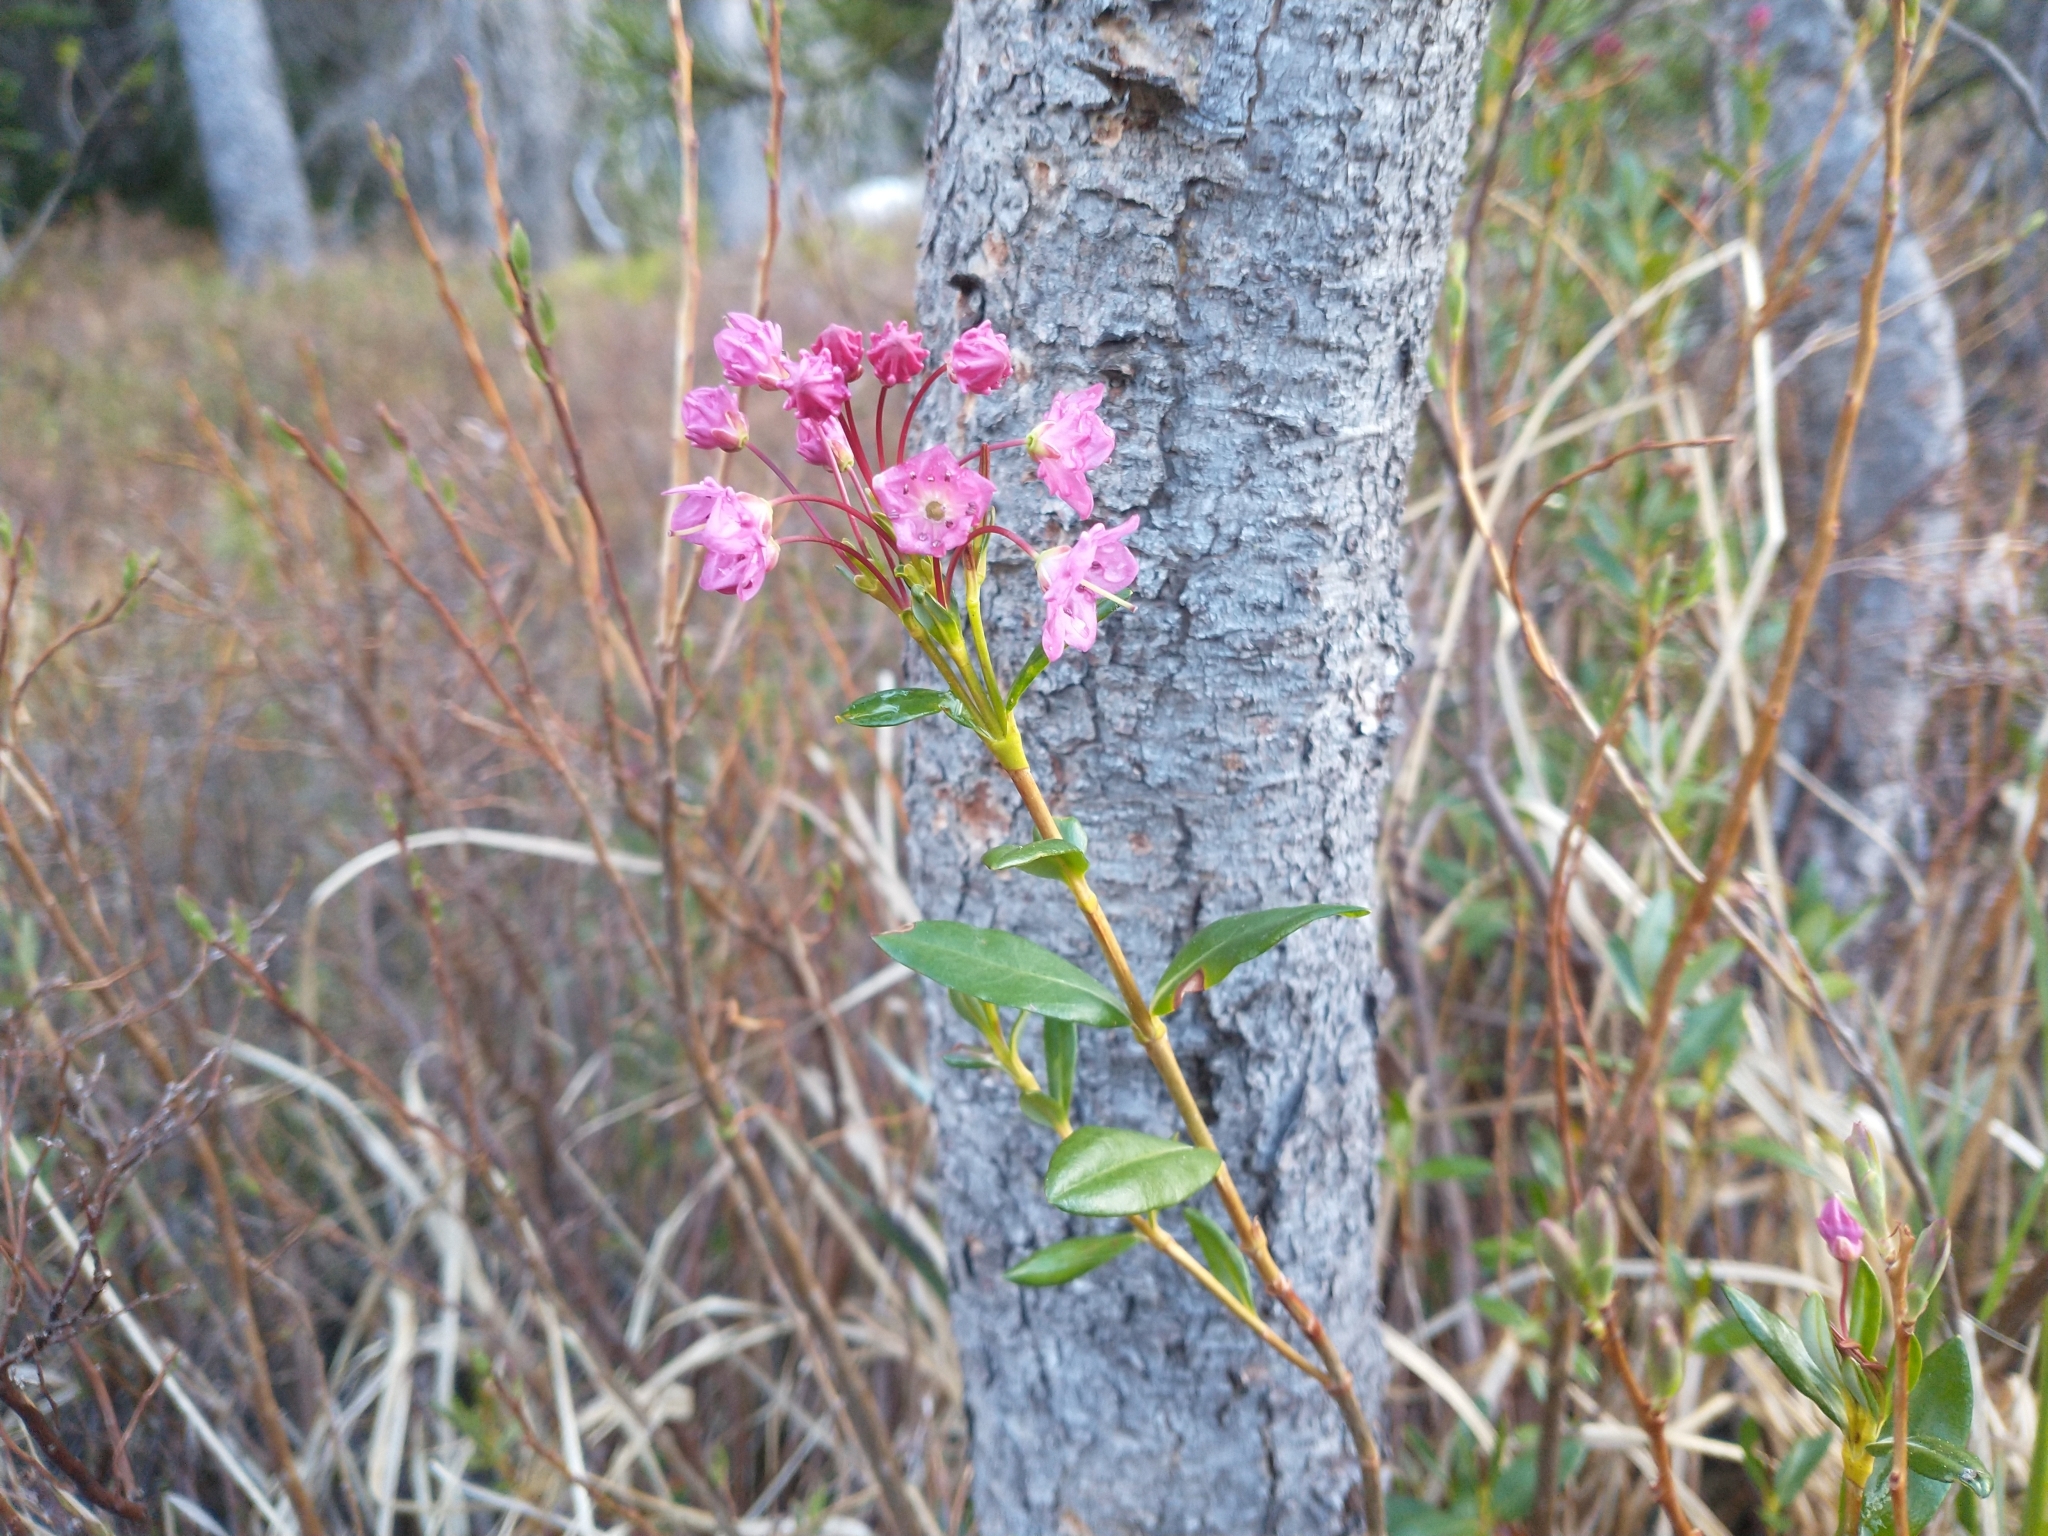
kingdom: Plantae
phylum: Tracheophyta
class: Magnoliopsida
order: Ericales
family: Ericaceae
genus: Kalmia
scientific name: Kalmia microphylla
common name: Alpine bog laurel
